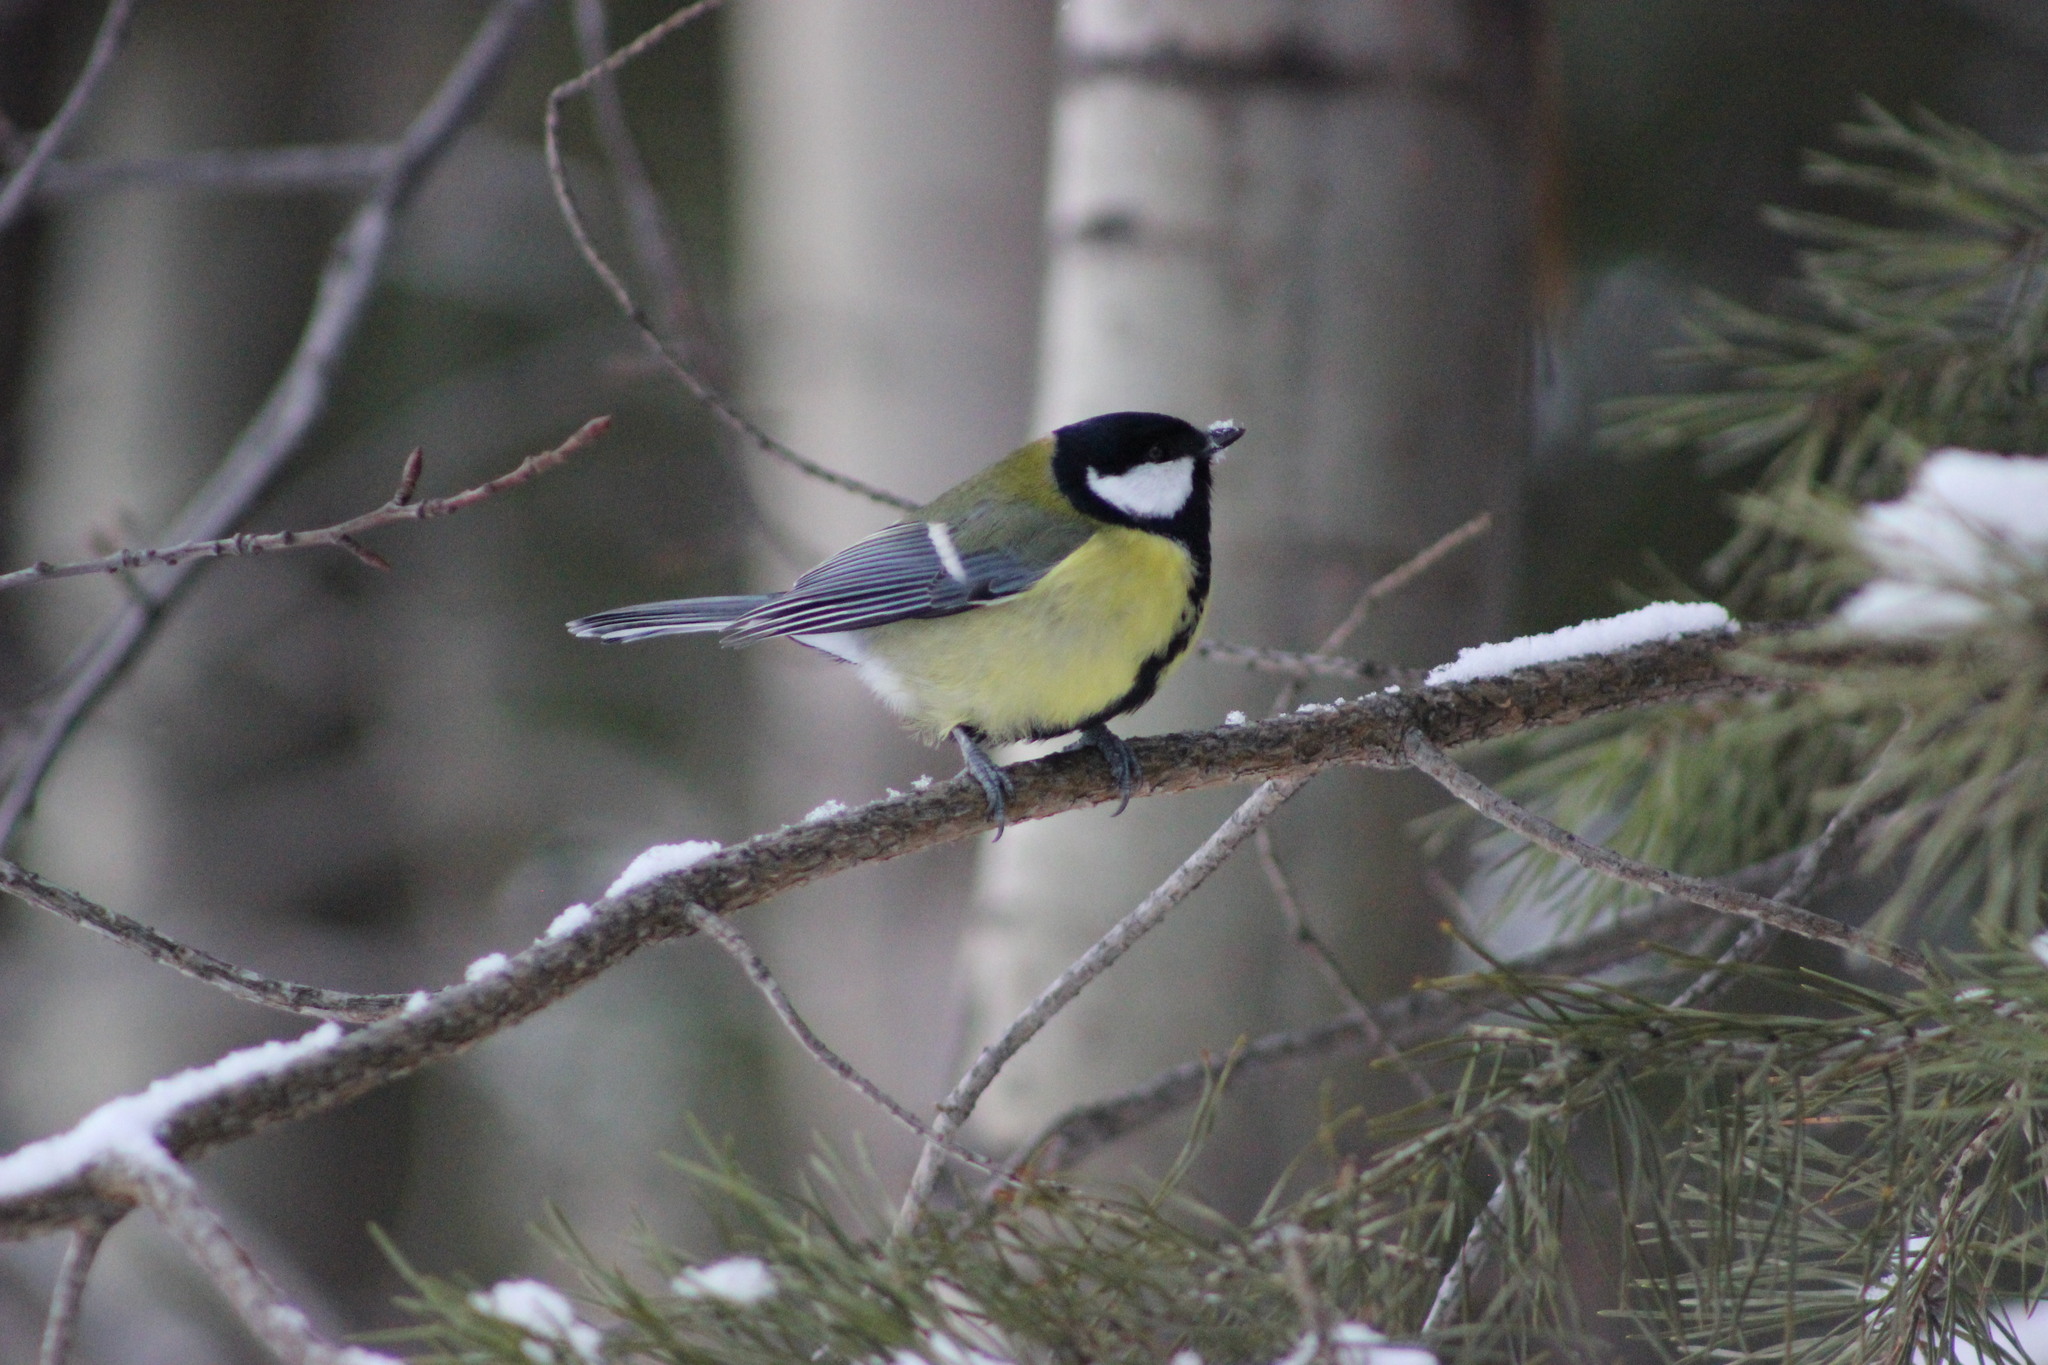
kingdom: Animalia
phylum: Chordata
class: Aves
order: Passeriformes
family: Paridae
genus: Parus
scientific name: Parus major
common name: Great tit
